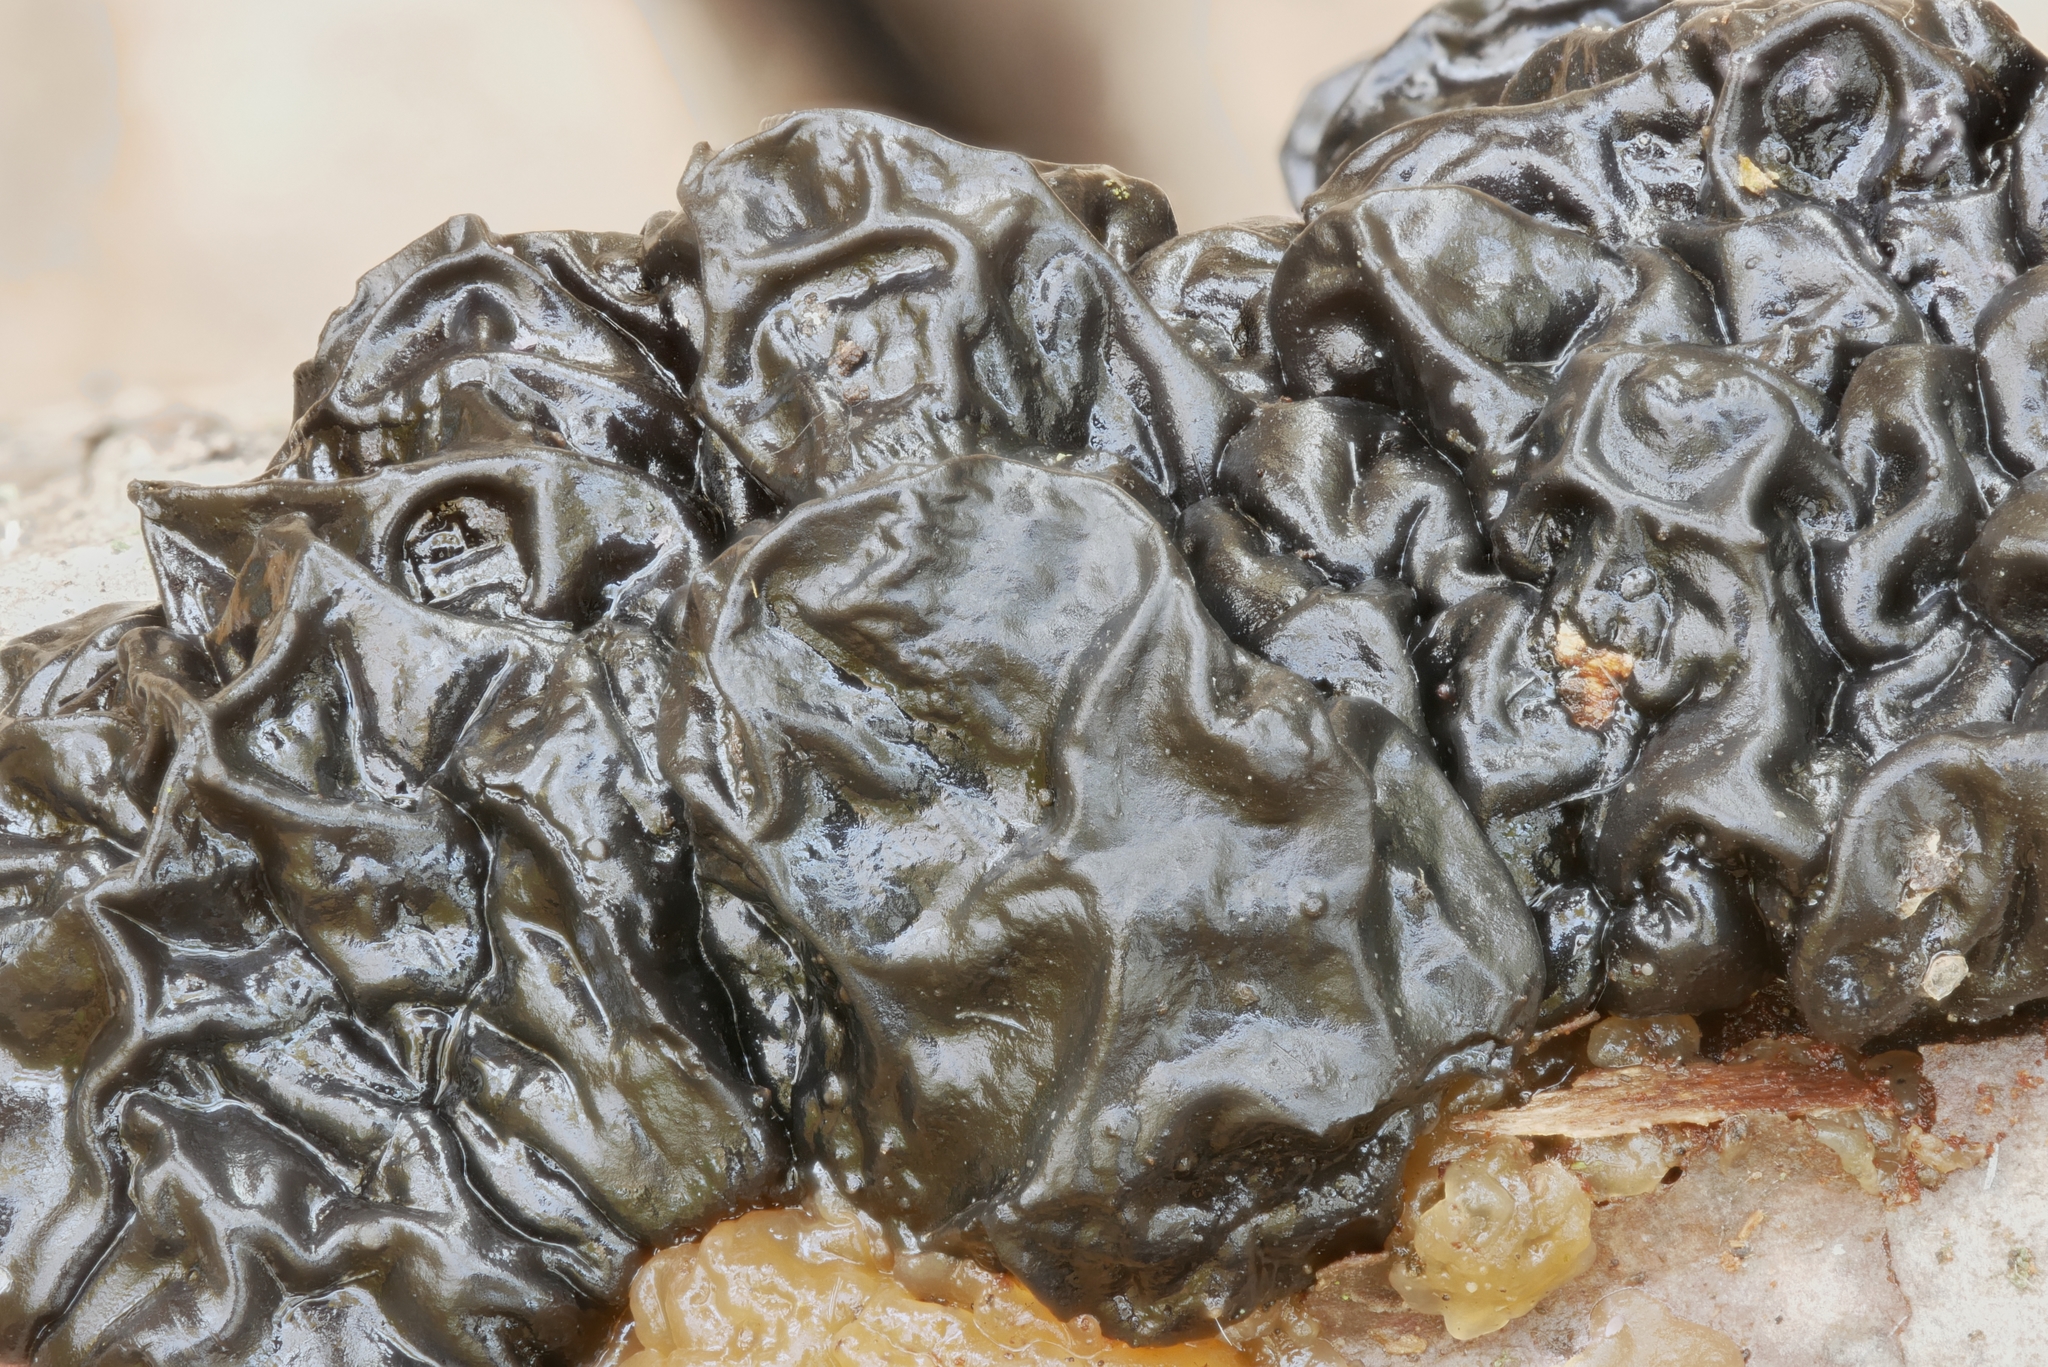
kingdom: Fungi
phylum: Basidiomycota
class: Agaricomycetes
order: Auriculariales
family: Auriculariaceae
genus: Exidia
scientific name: Exidia nigricans
